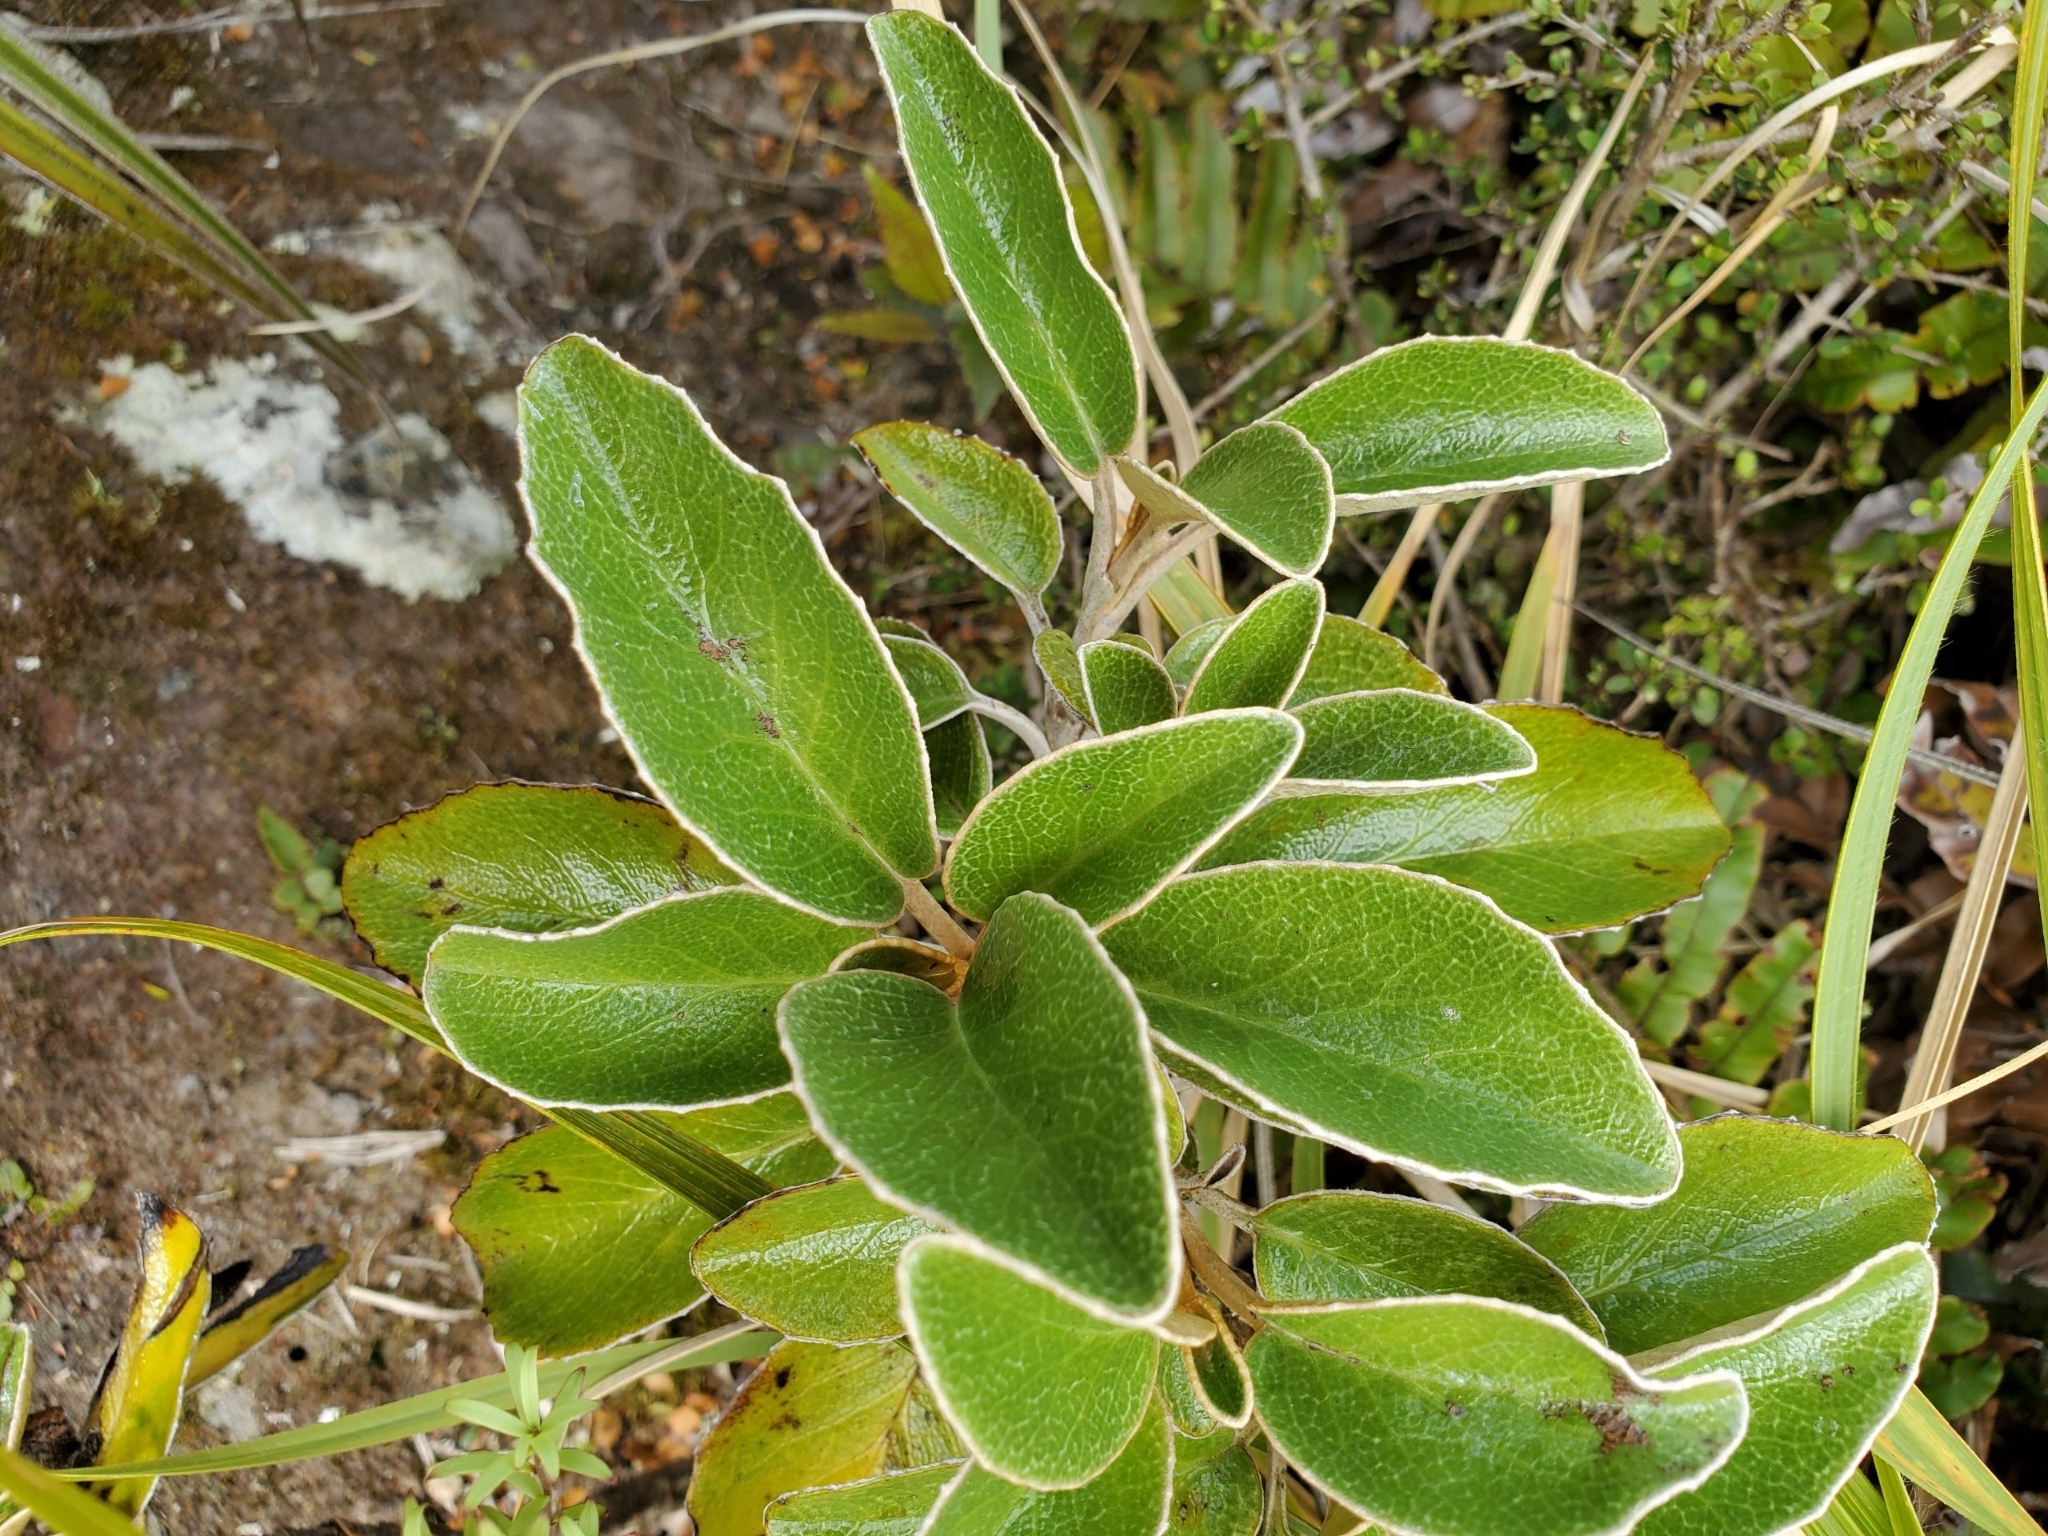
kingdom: Plantae
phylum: Tracheophyta
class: Magnoliopsida
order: Asterales
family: Asteraceae
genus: Brachyglottis
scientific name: Brachyglottis elaeagnifolia
